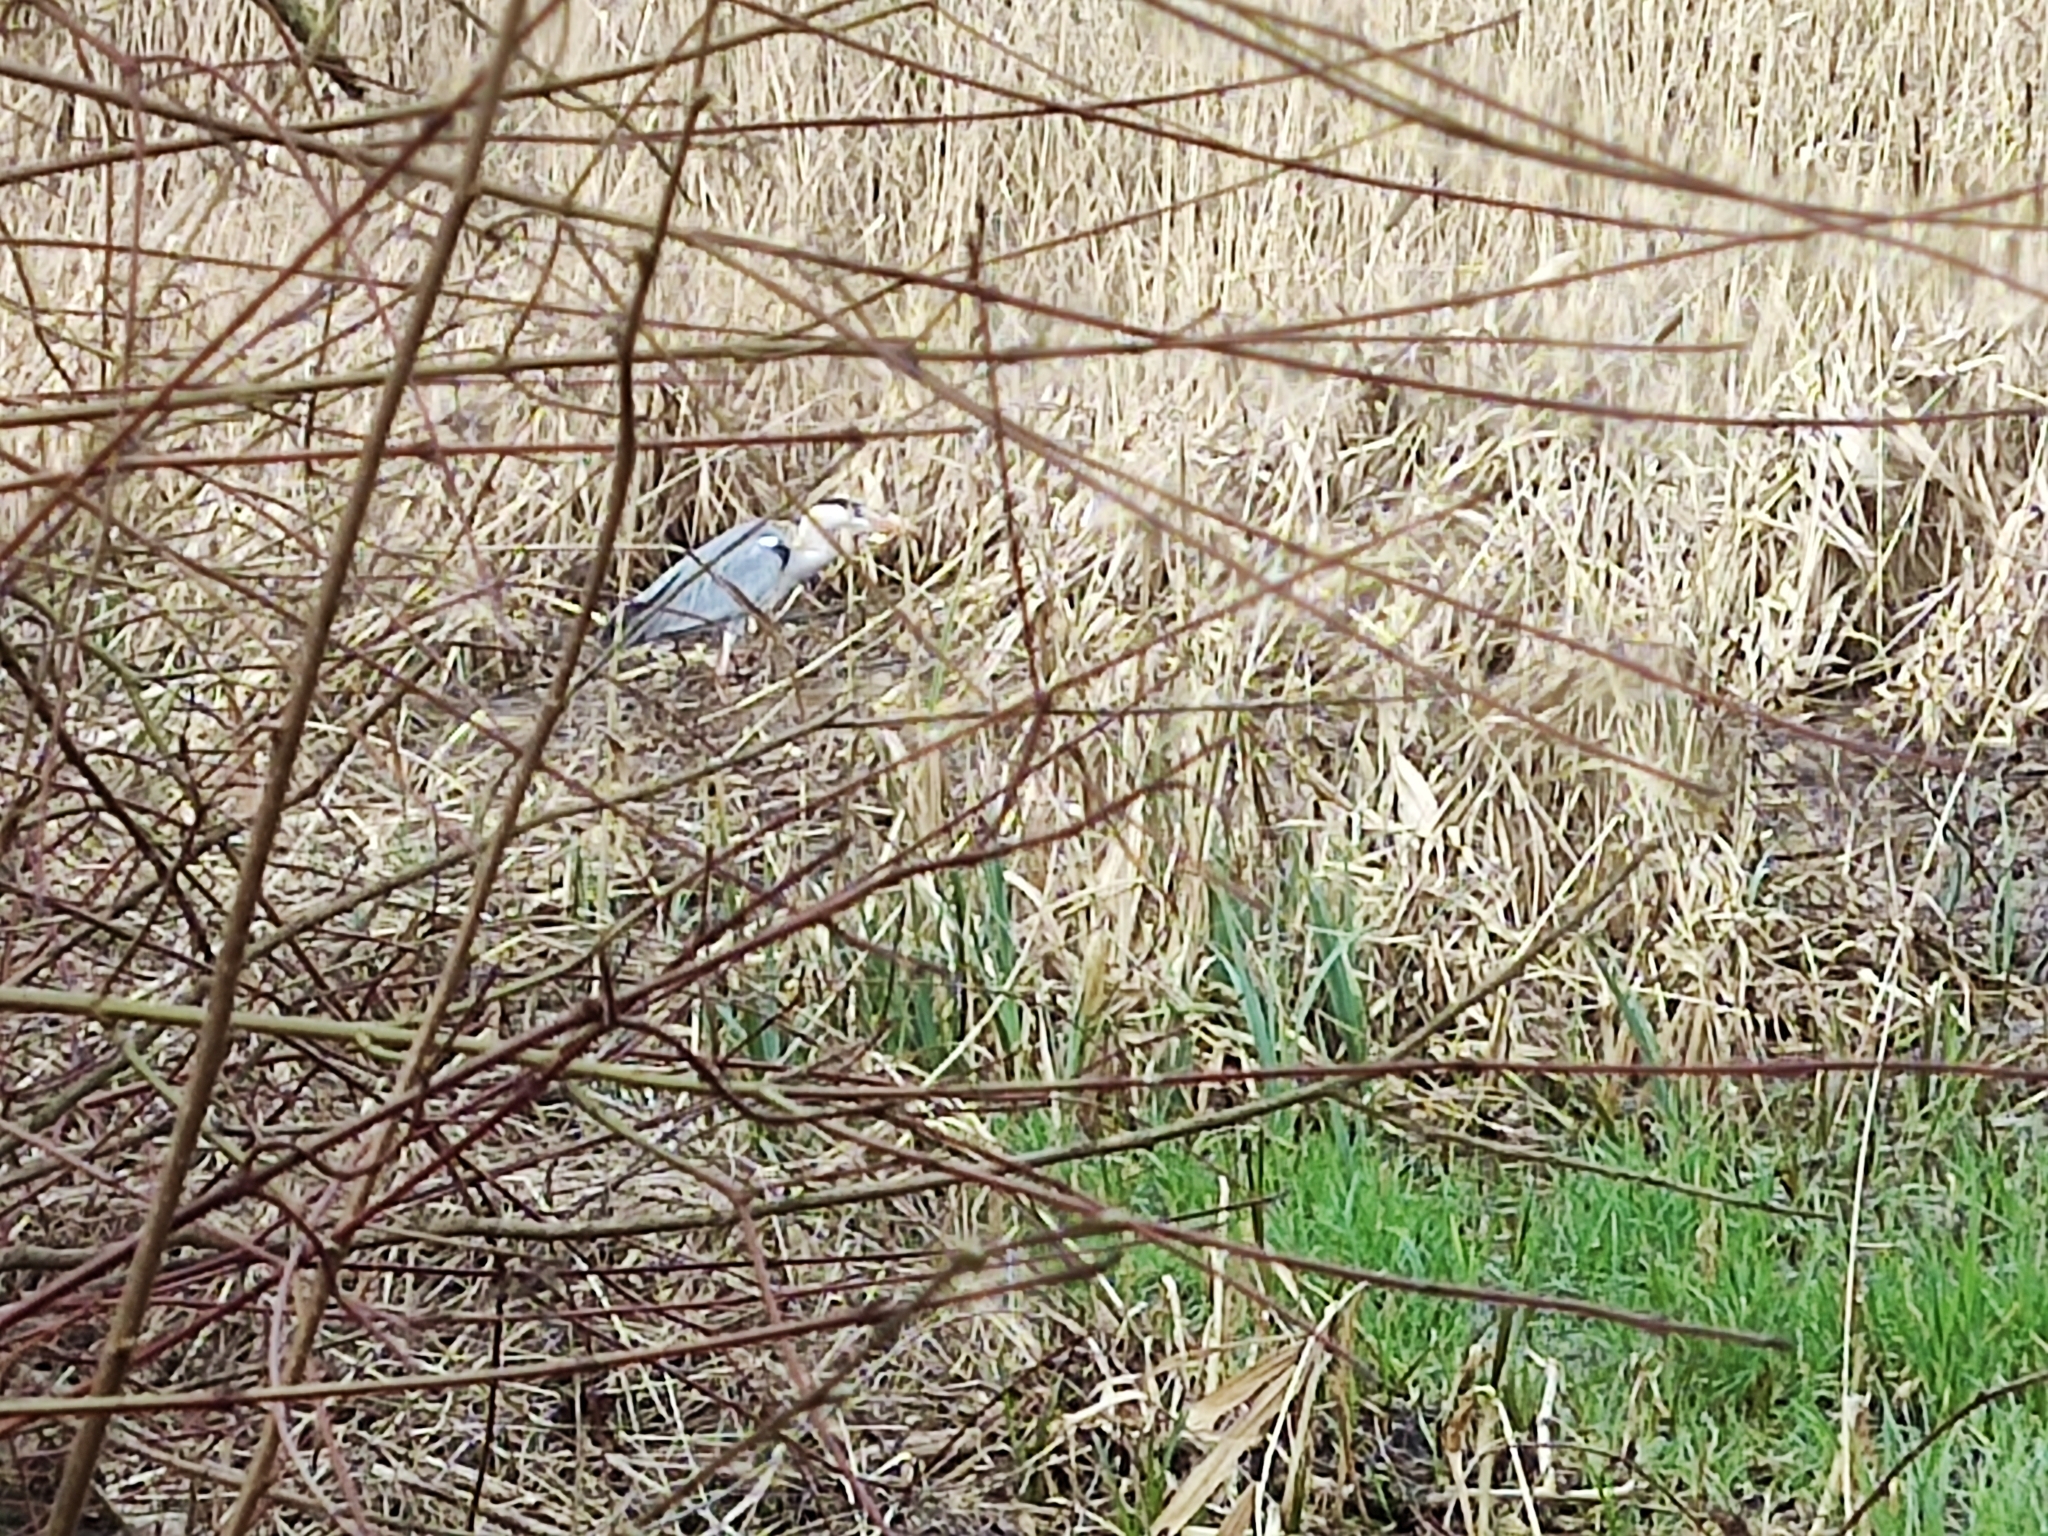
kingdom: Animalia
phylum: Chordata
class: Aves
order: Pelecaniformes
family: Ardeidae
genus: Ardea
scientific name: Ardea cinerea
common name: Grey heron
